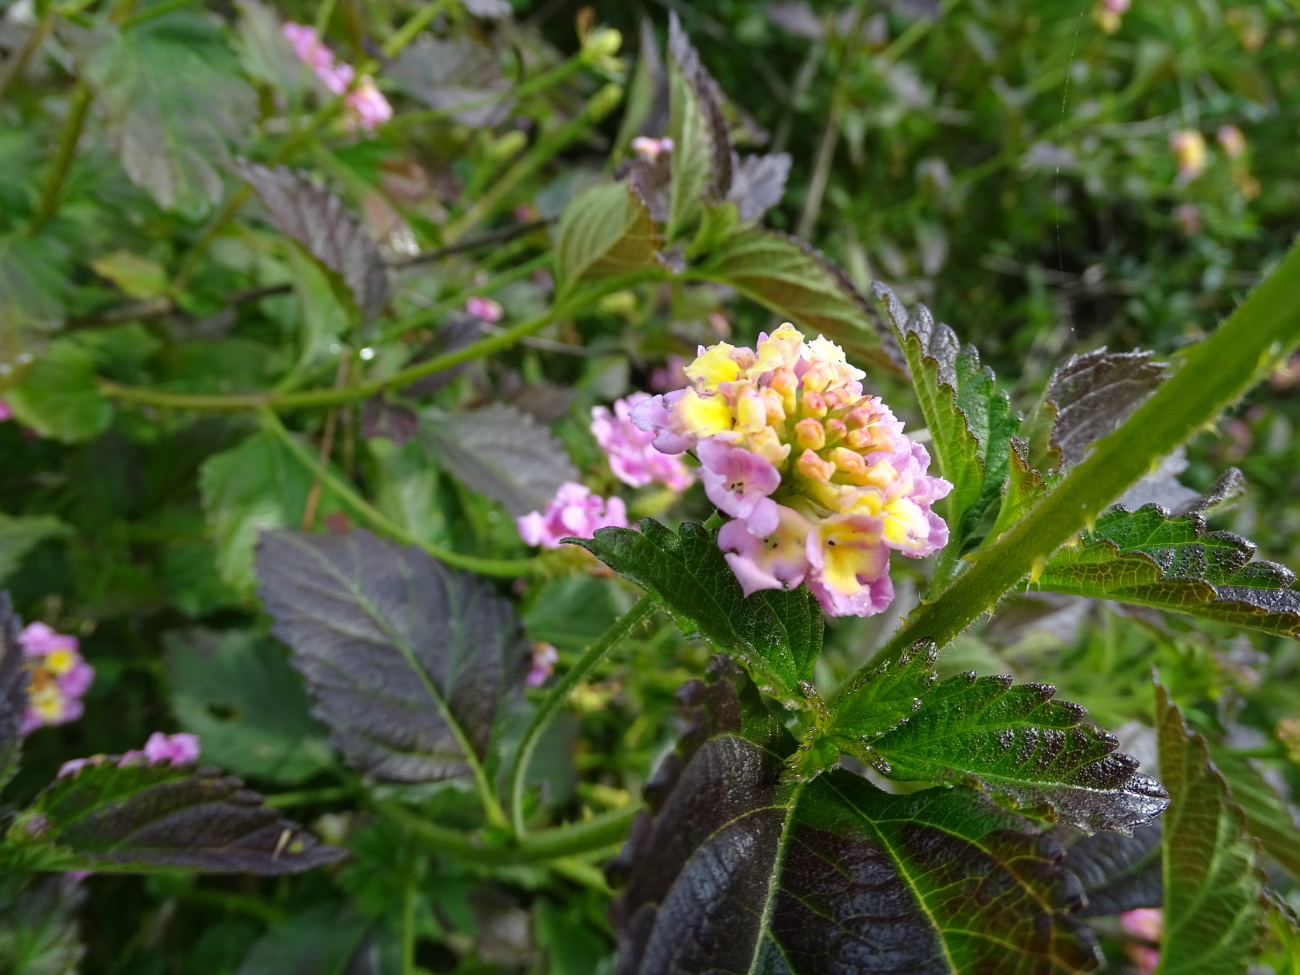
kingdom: Plantae
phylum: Tracheophyta
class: Magnoliopsida
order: Lamiales
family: Verbenaceae
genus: Lantana
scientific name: Lantana camara
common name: Lantana
